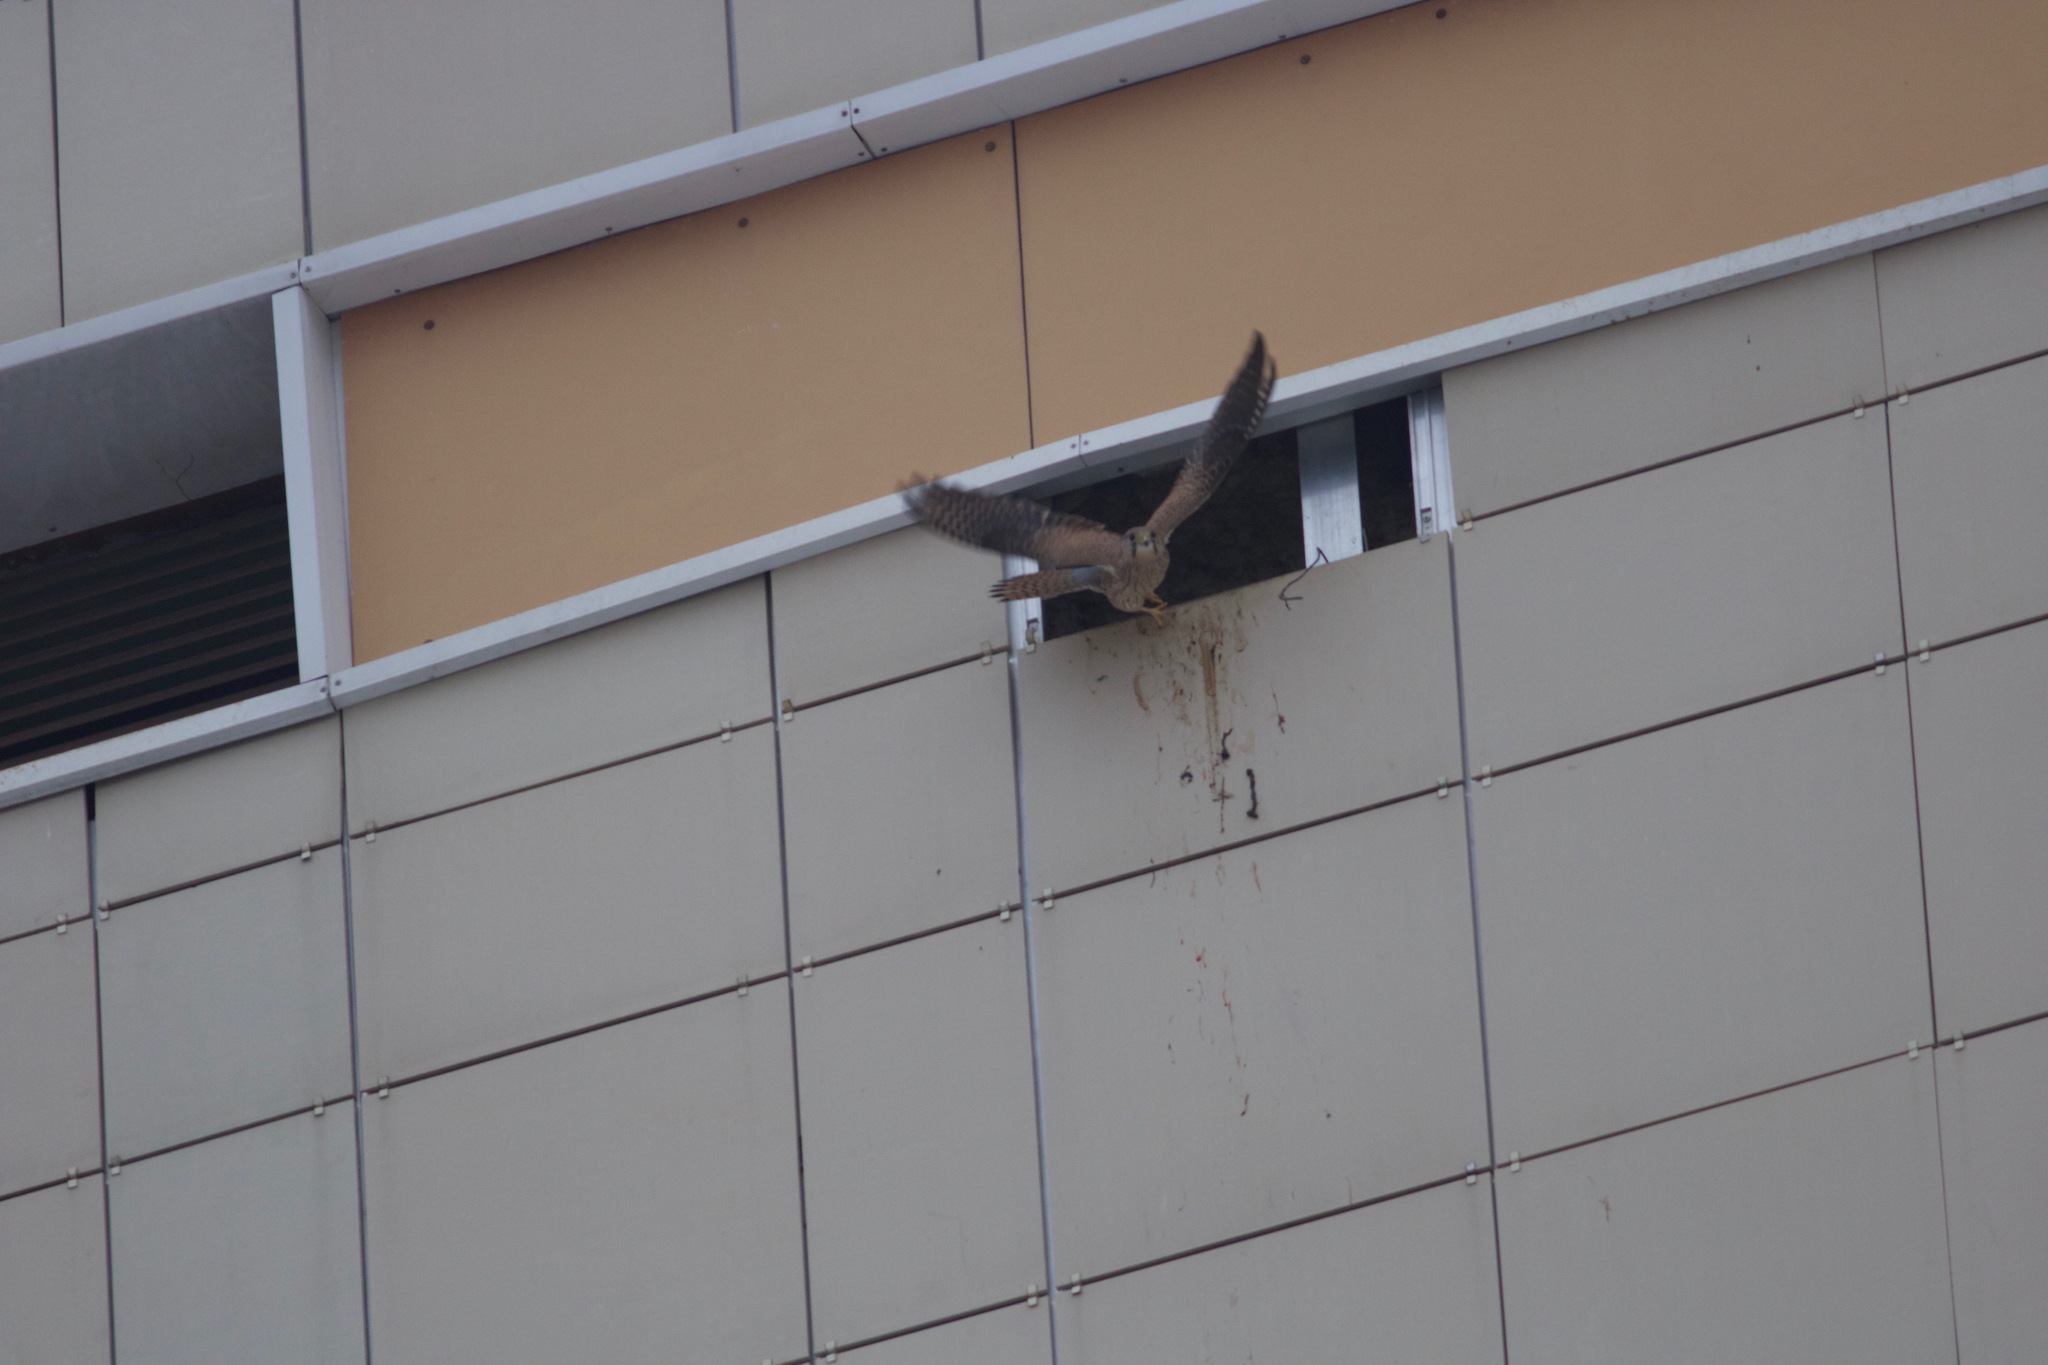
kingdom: Animalia
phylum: Chordata
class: Aves
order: Falconiformes
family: Falconidae
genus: Falco
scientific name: Falco tinnunculus
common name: Common kestrel
